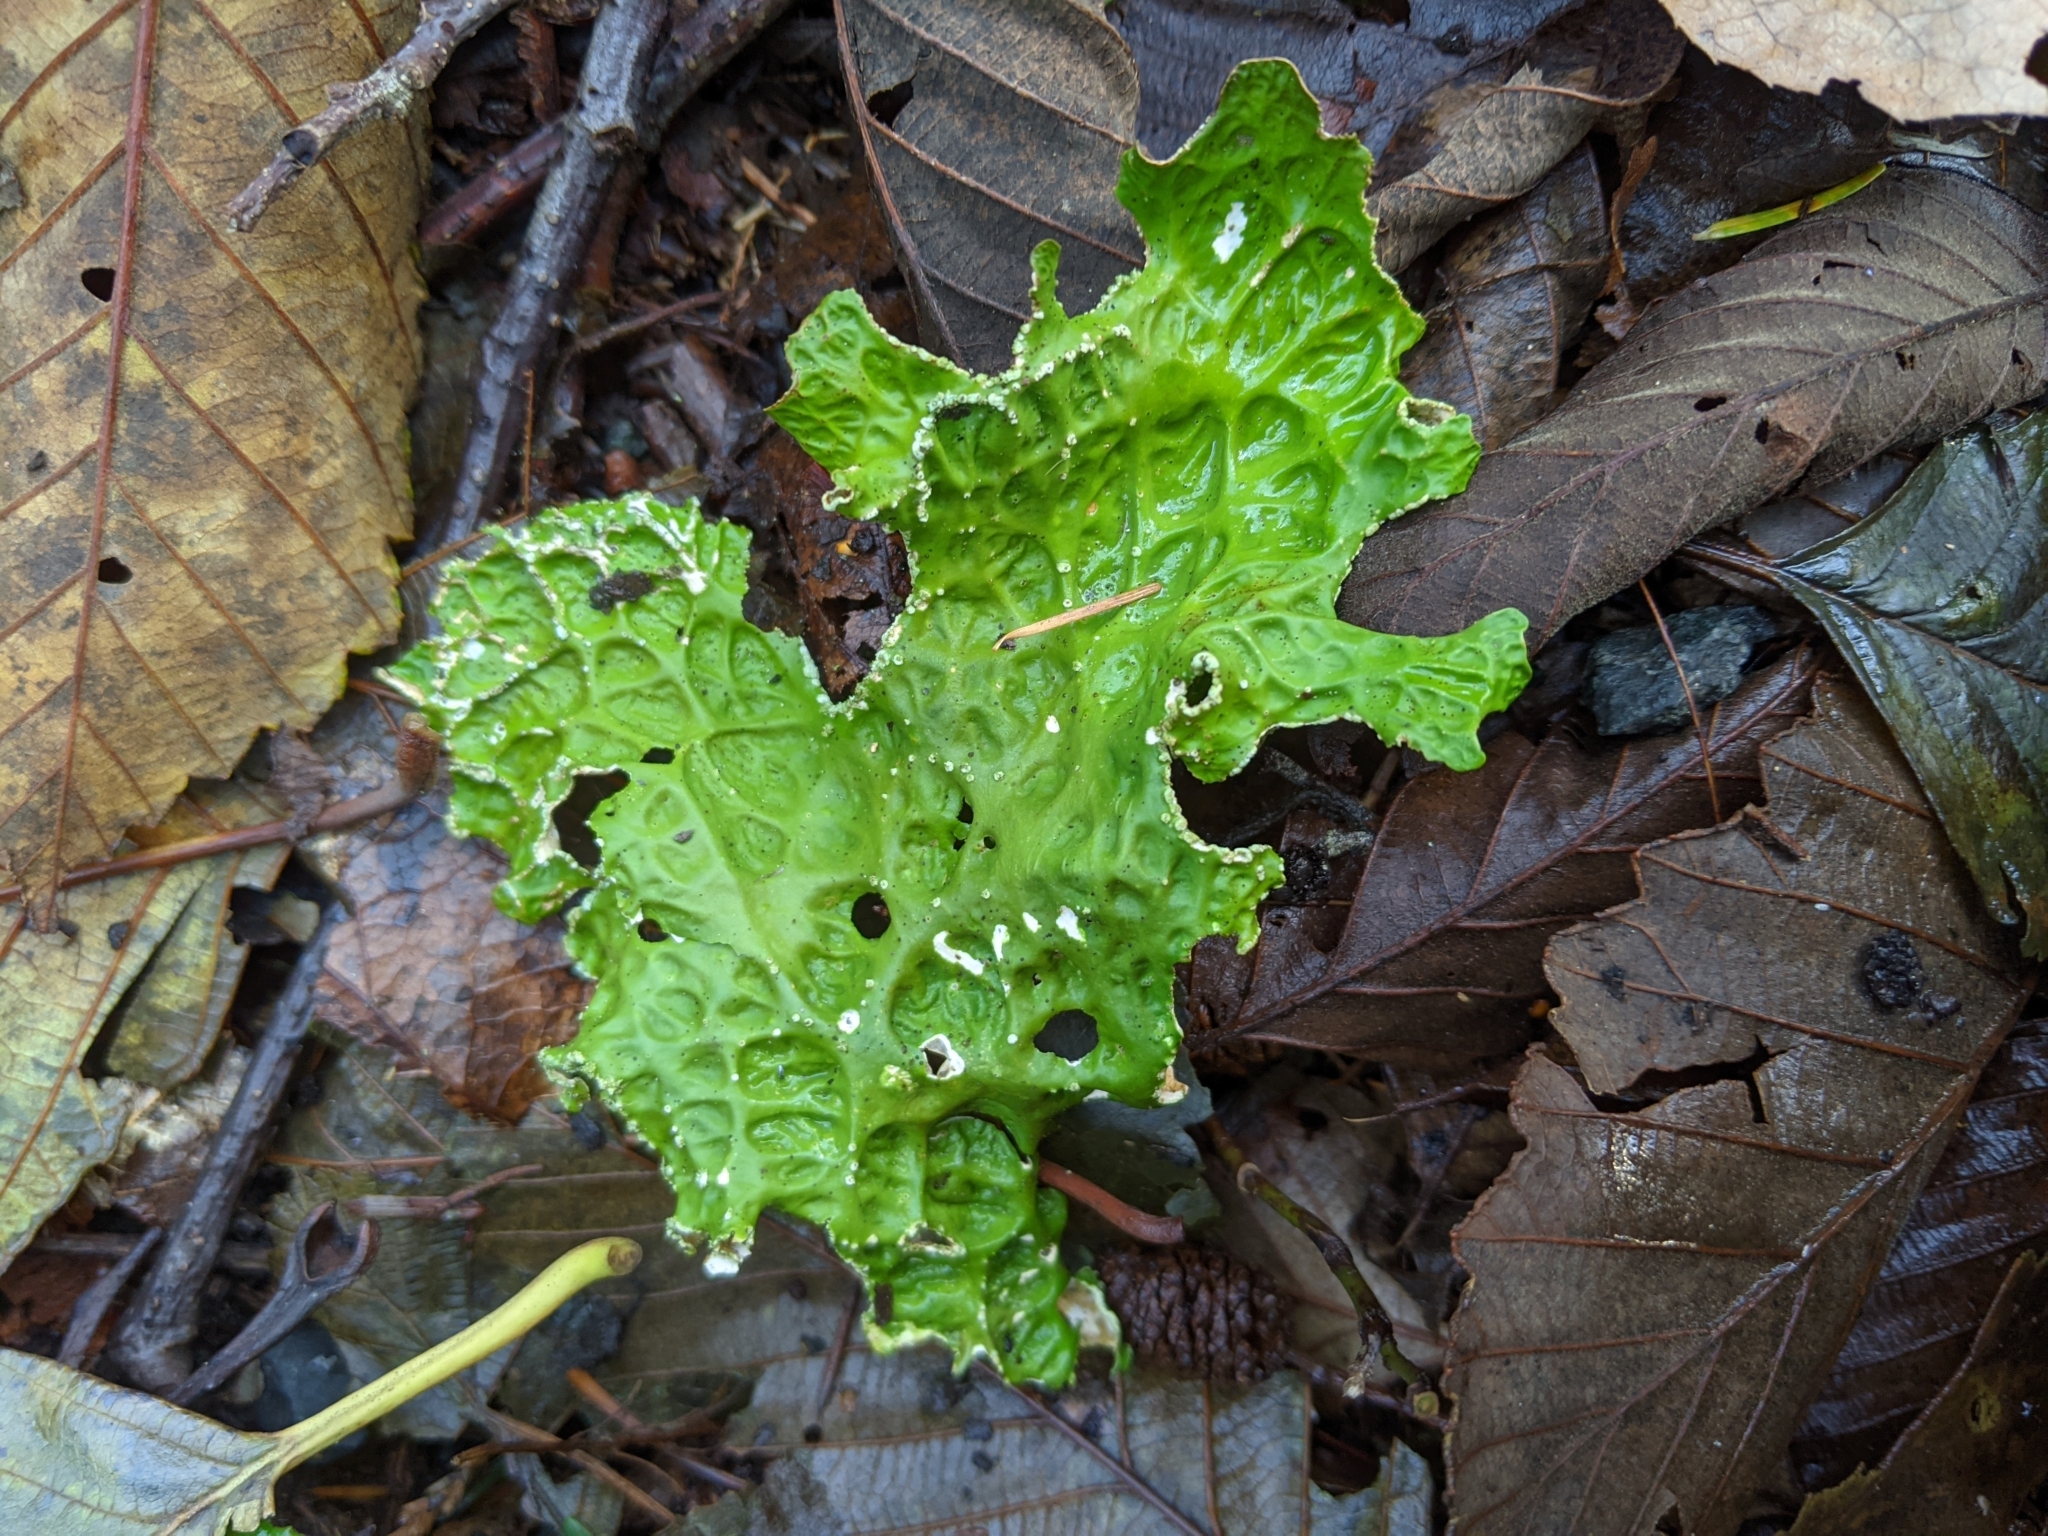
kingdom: Fungi
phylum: Ascomycota
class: Lecanoromycetes
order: Peltigerales
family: Lobariaceae
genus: Lobaria
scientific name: Lobaria pulmonaria
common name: Lungwort
